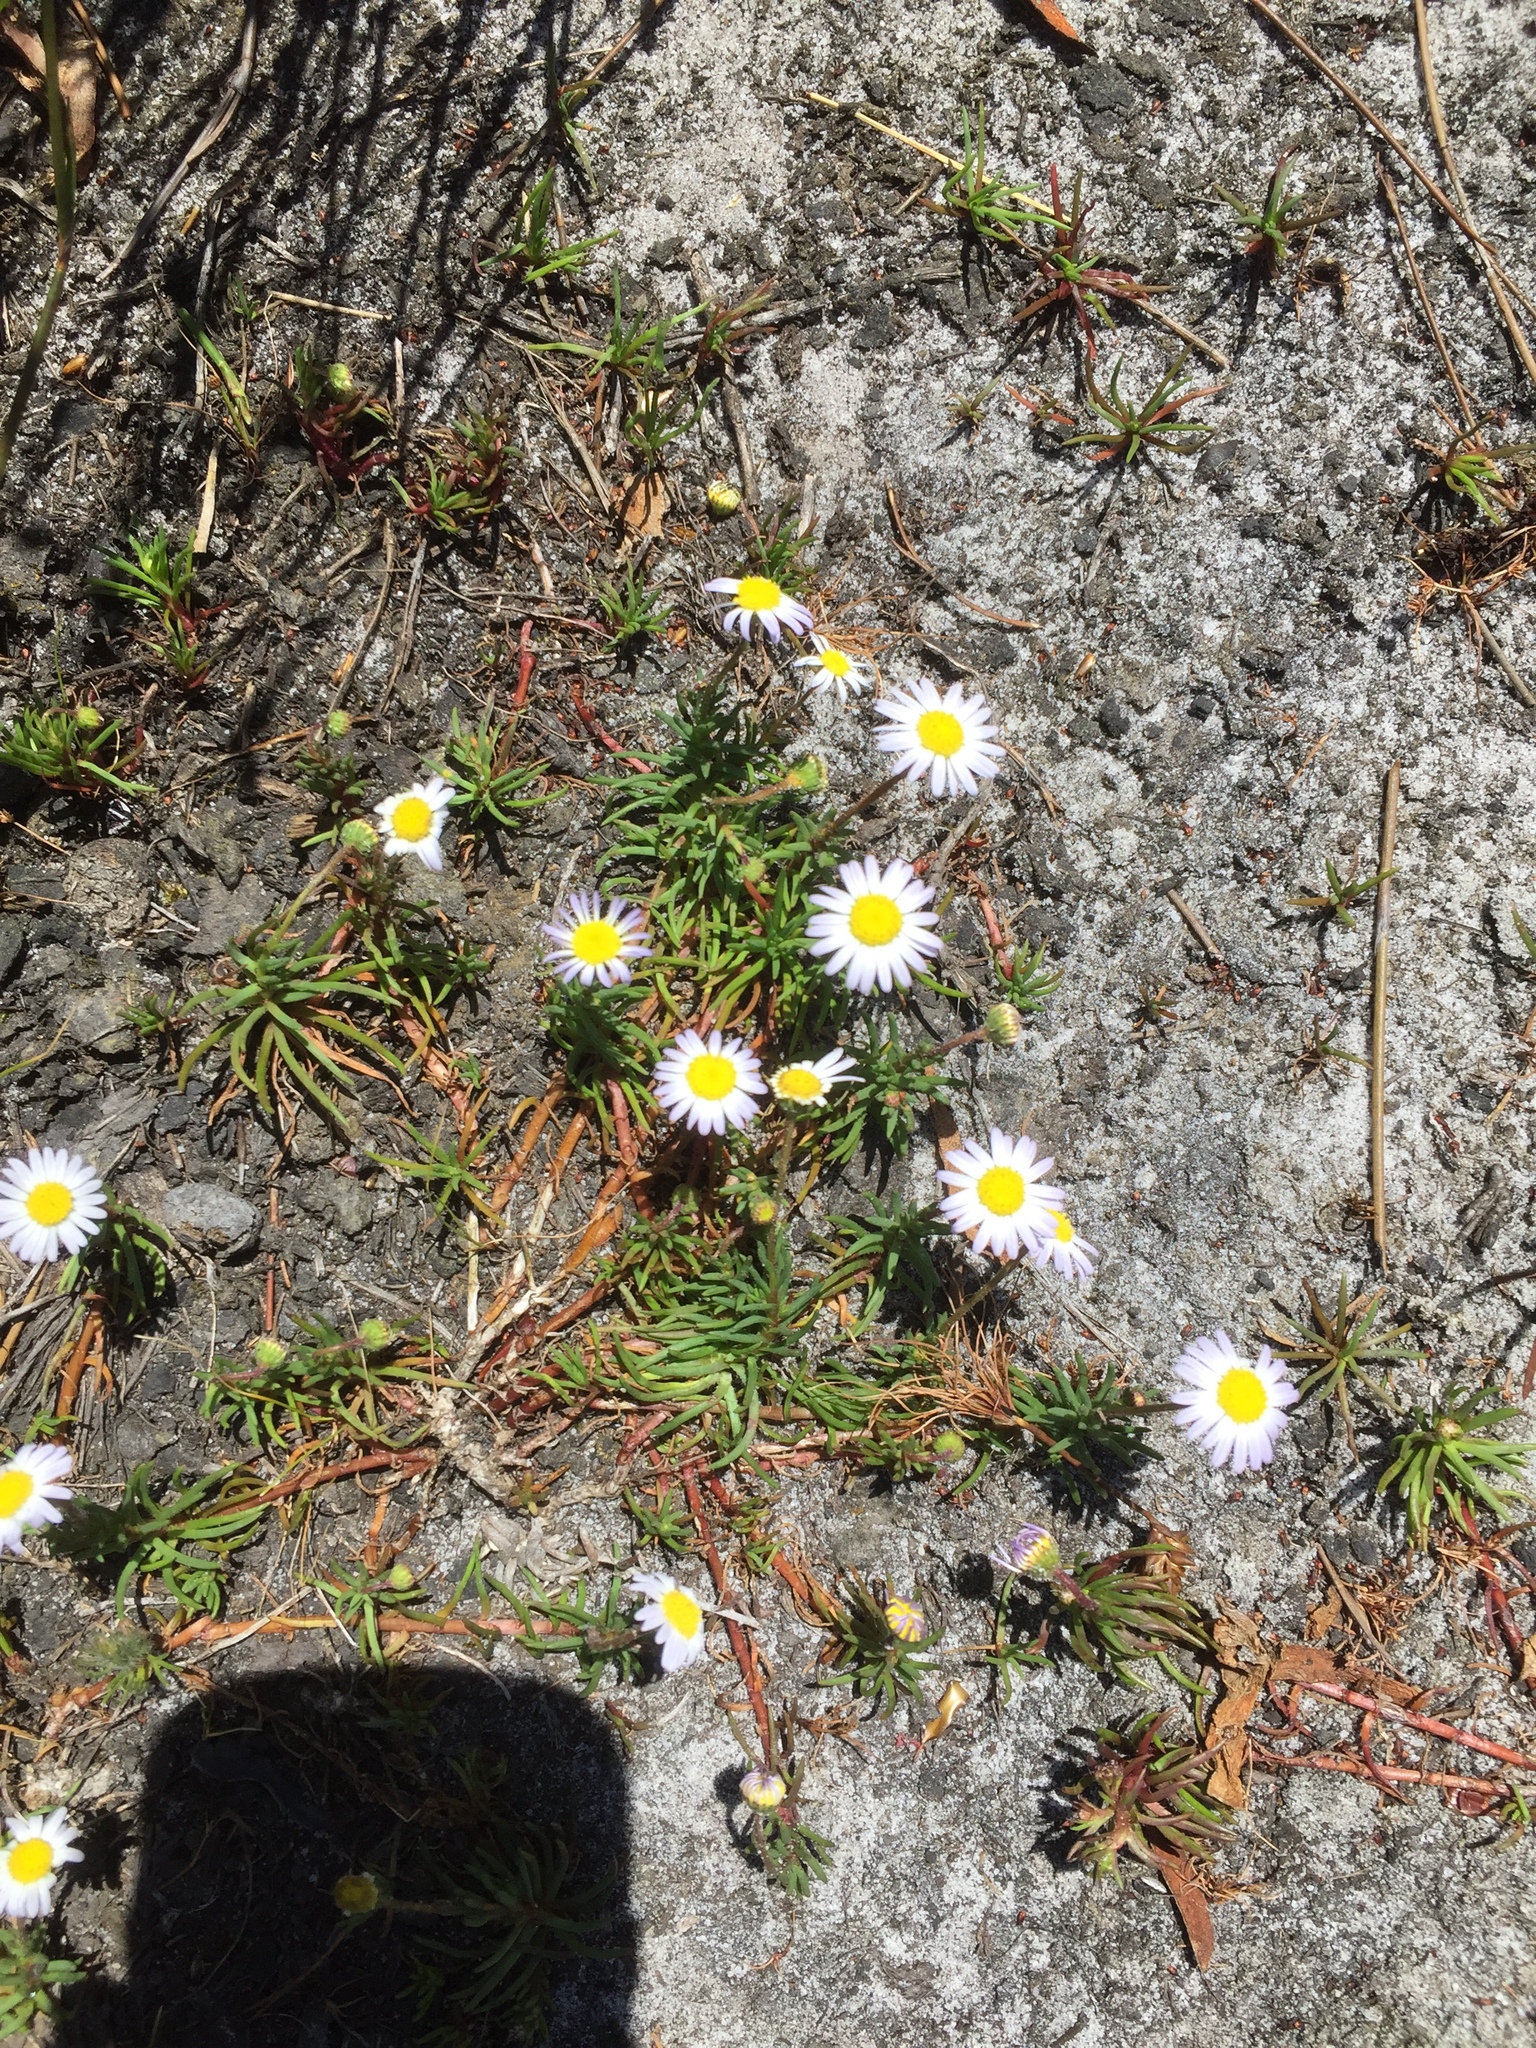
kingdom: Plantae
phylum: Tracheophyta
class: Magnoliopsida
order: Asterales
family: Asteraceae
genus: Felicia
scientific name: Felicia tenella
